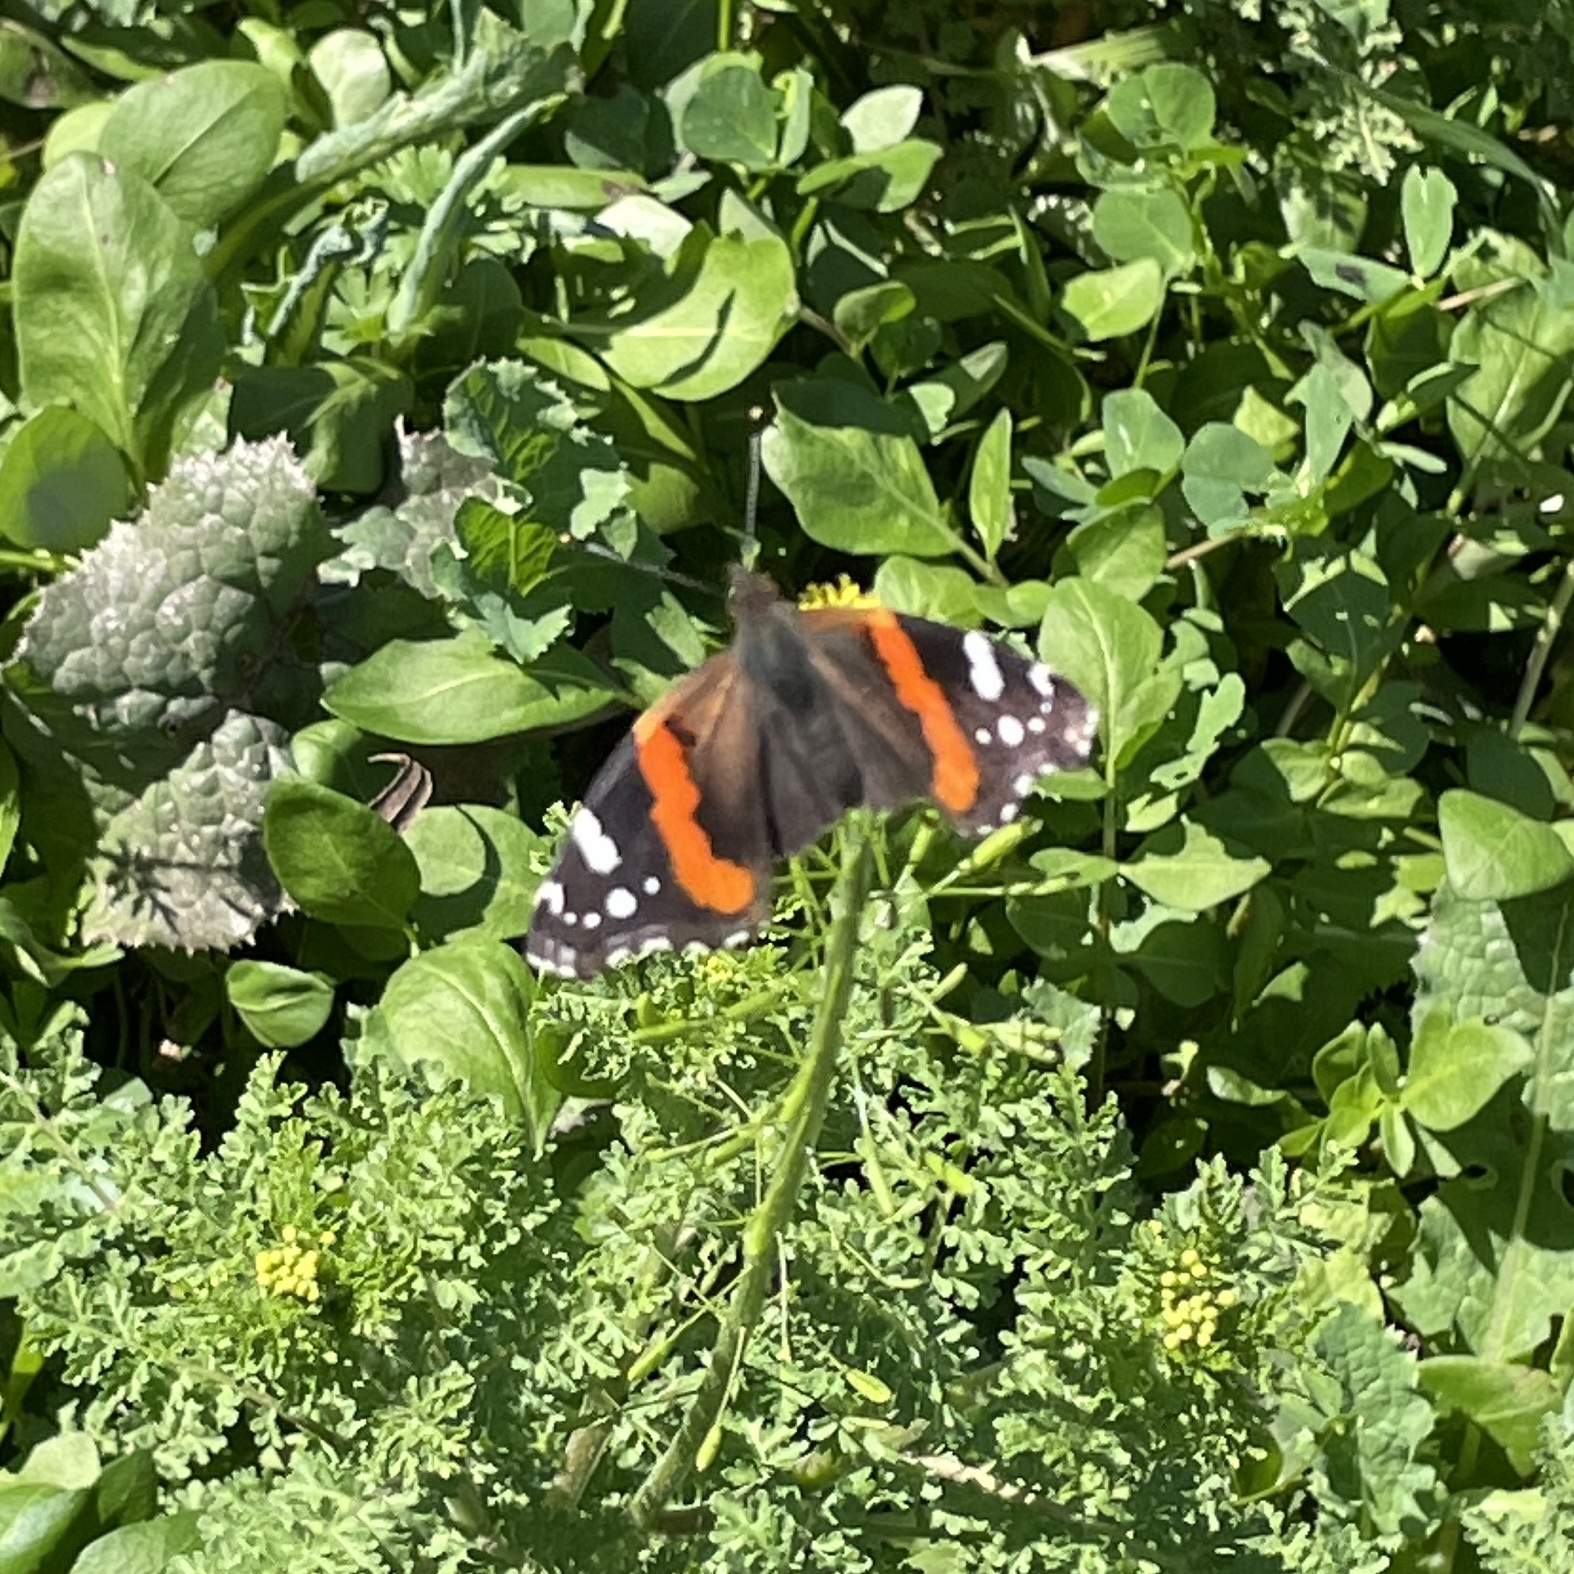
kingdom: Animalia
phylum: Arthropoda
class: Insecta
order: Lepidoptera
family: Nymphalidae
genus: Vanessa
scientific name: Vanessa atalanta
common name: Red admiral
